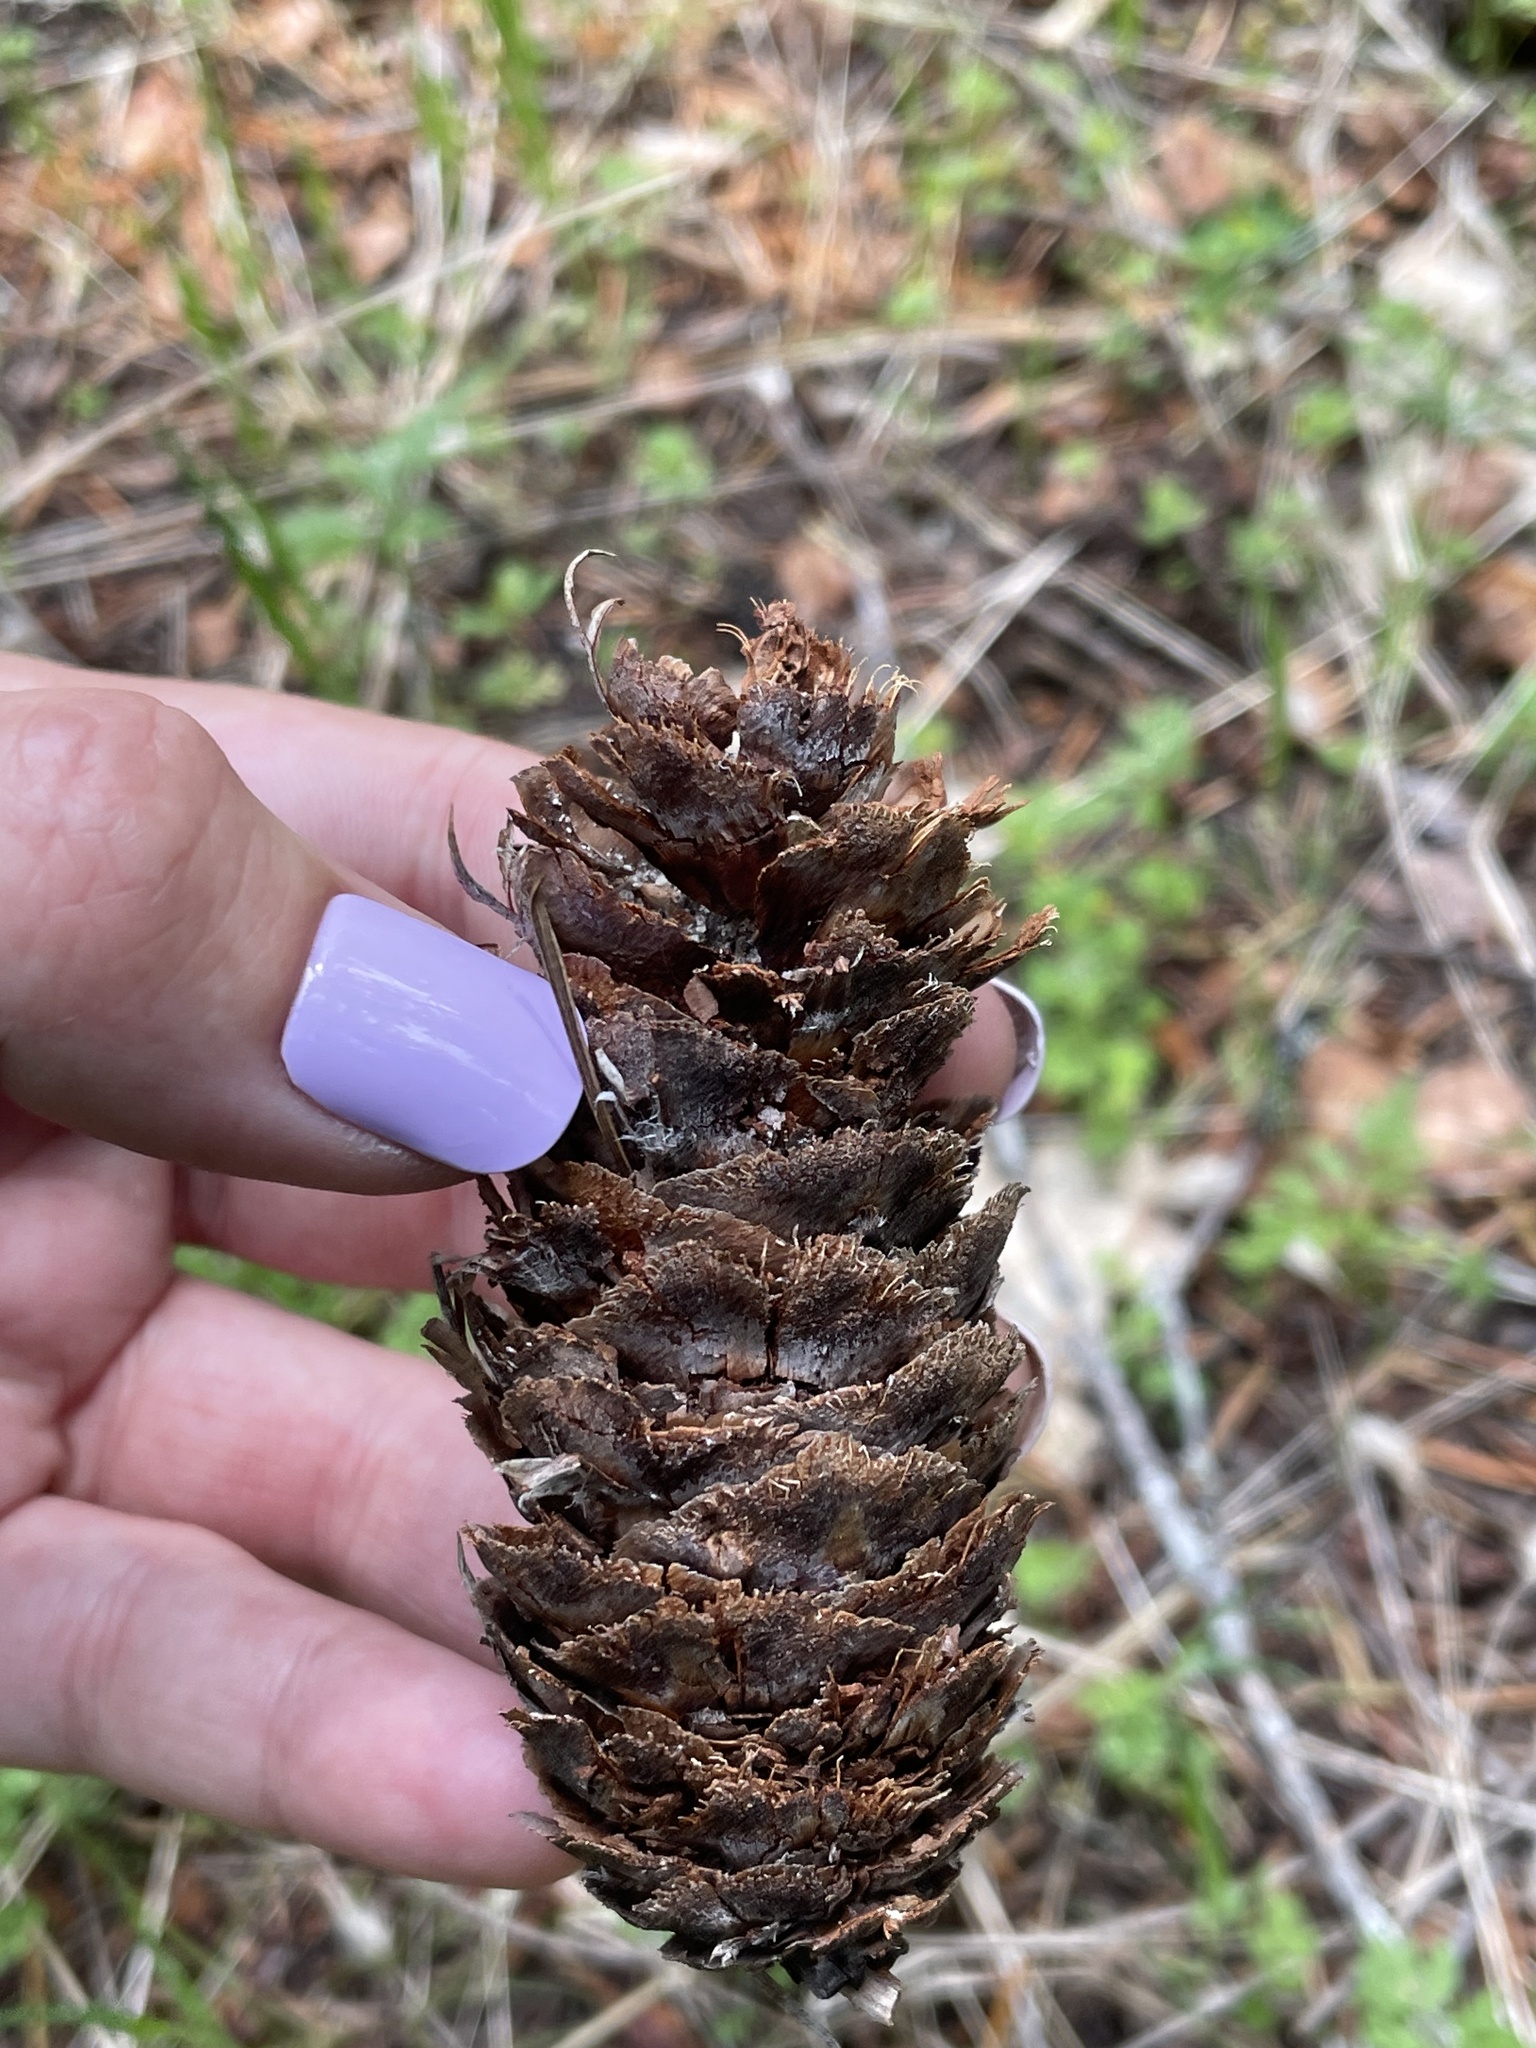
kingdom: Plantae
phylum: Tracheophyta
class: Pinopsida
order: Pinales
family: Pinaceae
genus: Pseudotsuga
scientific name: Pseudotsuga menziesii
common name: Douglas fir
